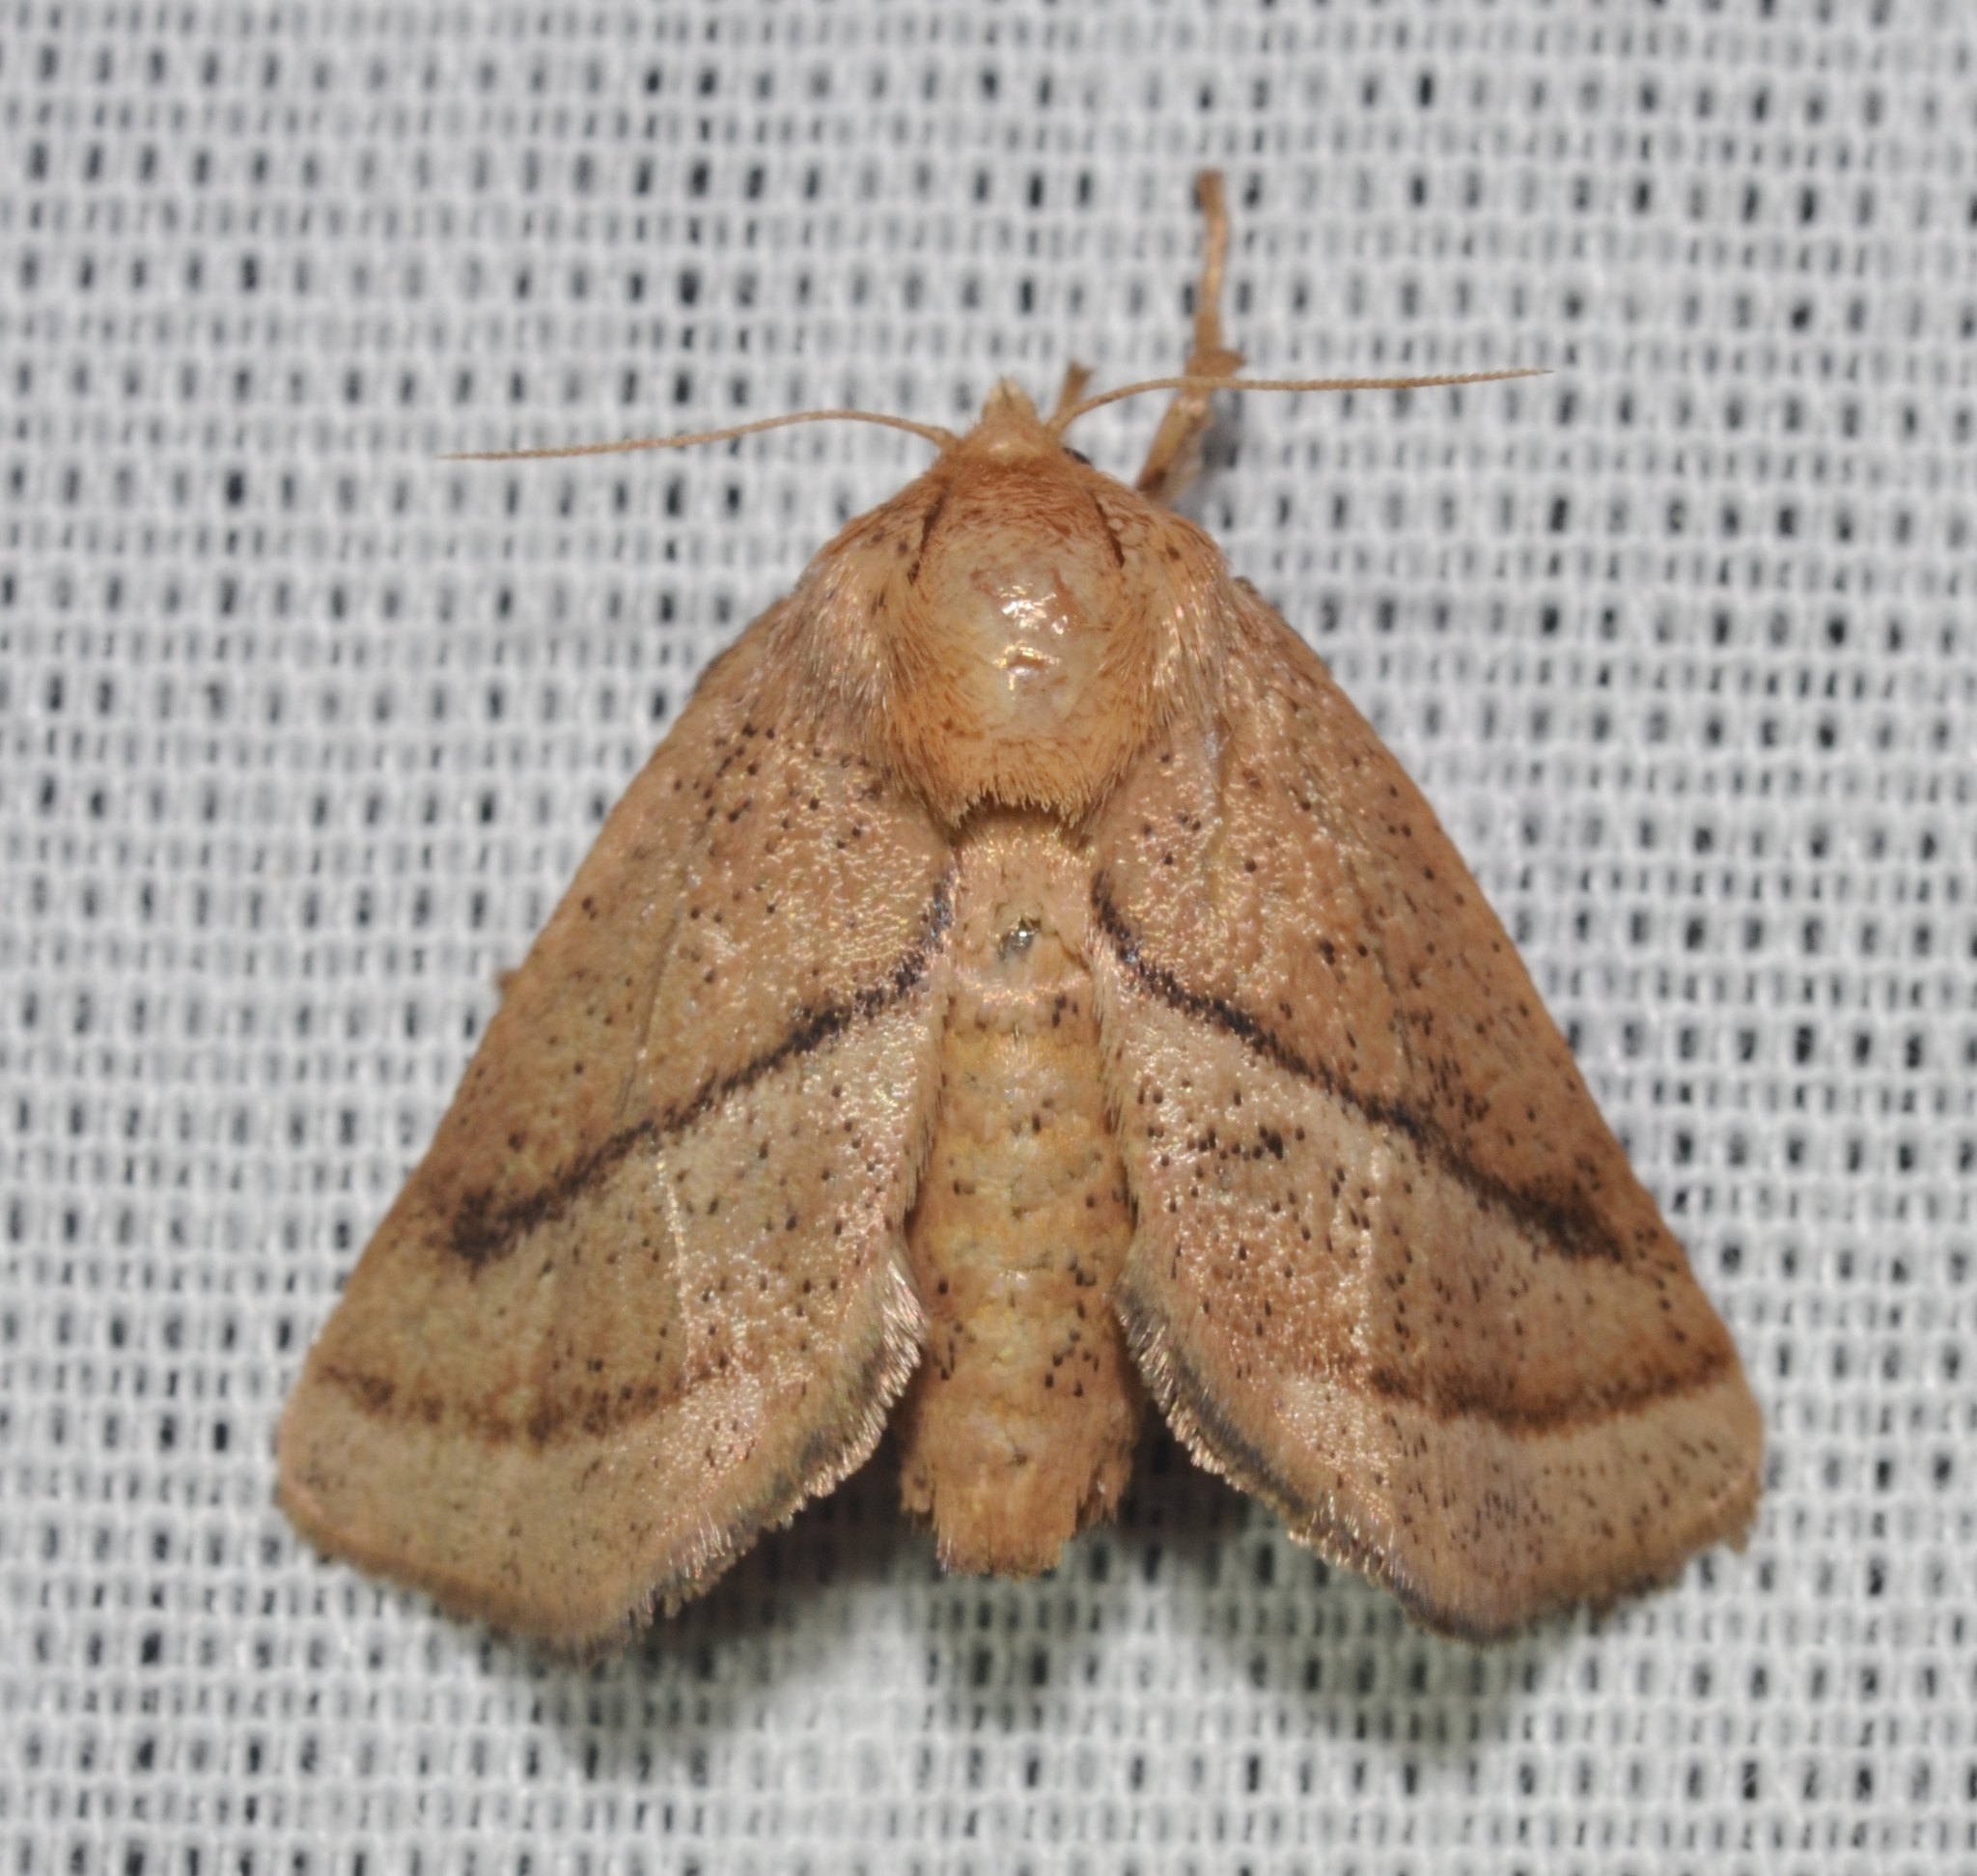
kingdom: Animalia
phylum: Arthropoda
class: Insecta
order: Lepidoptera
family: Limacodidae
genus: Natada
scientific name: Natada nasoni
